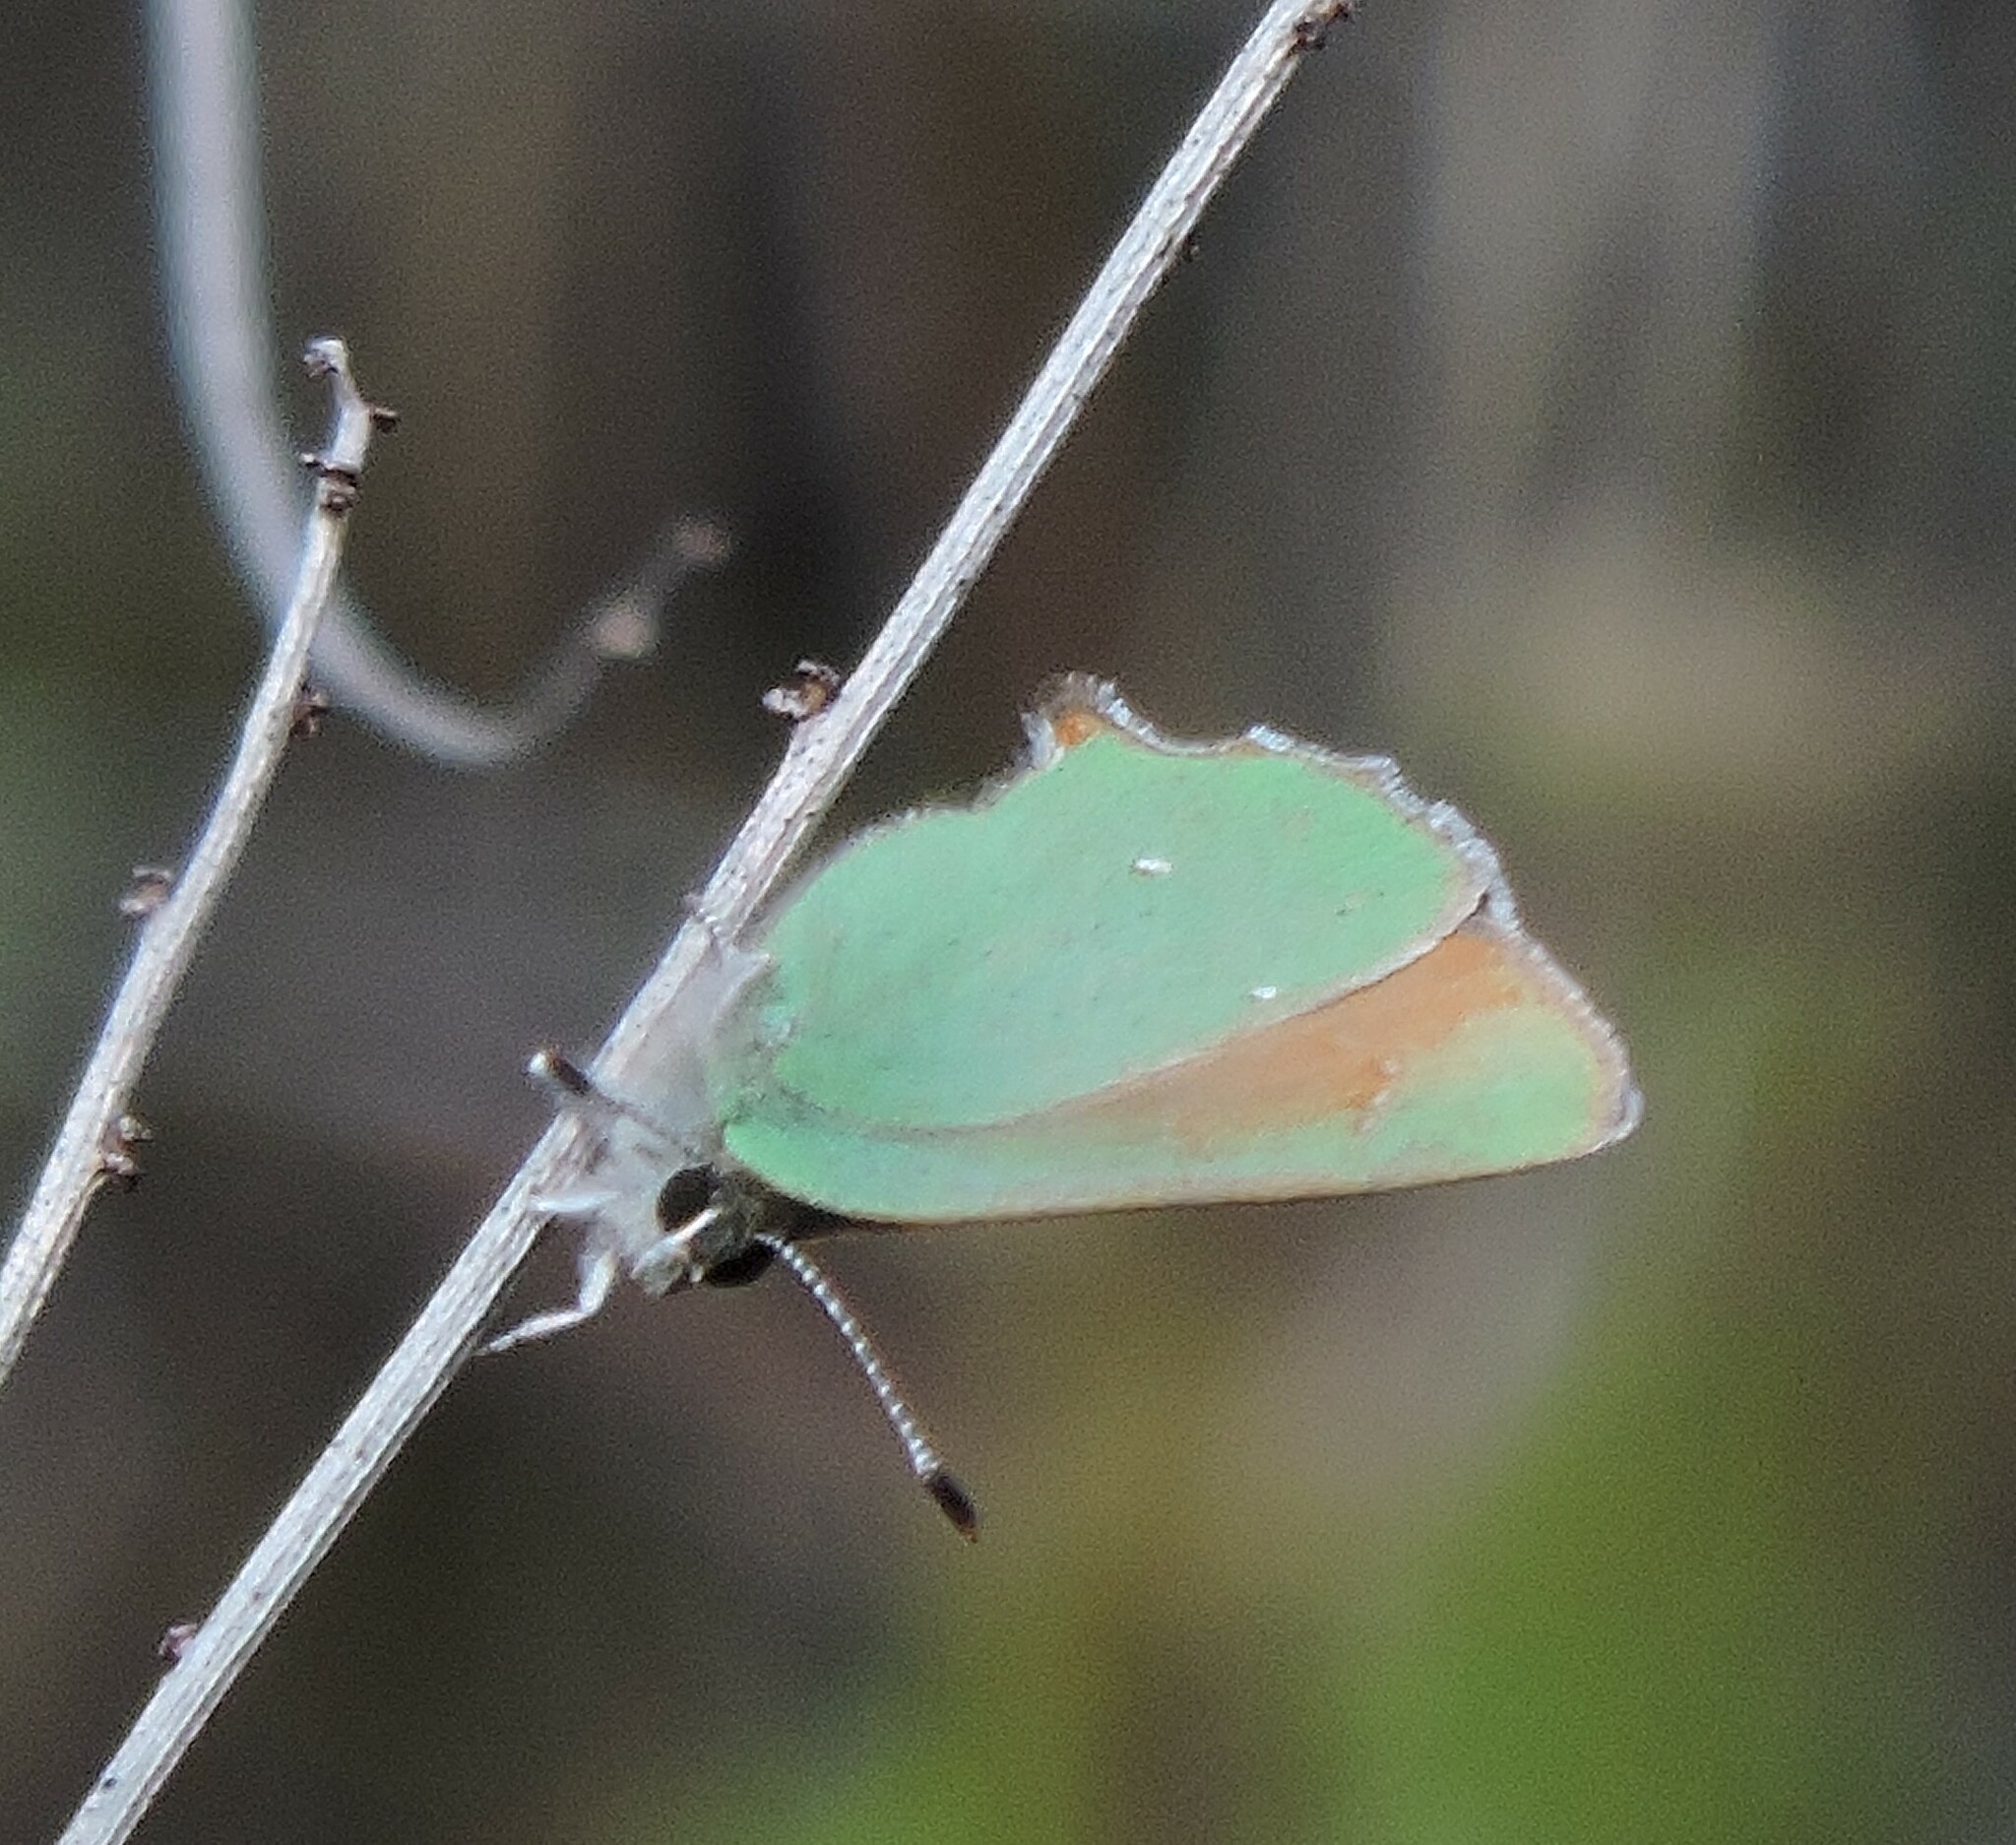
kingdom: Animalia
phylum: Arthropoda
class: Insecta
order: Lepidoptera
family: Lycaenidae
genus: Callophrys
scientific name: Callophrys dumetorum
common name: Bramble hairstreak
